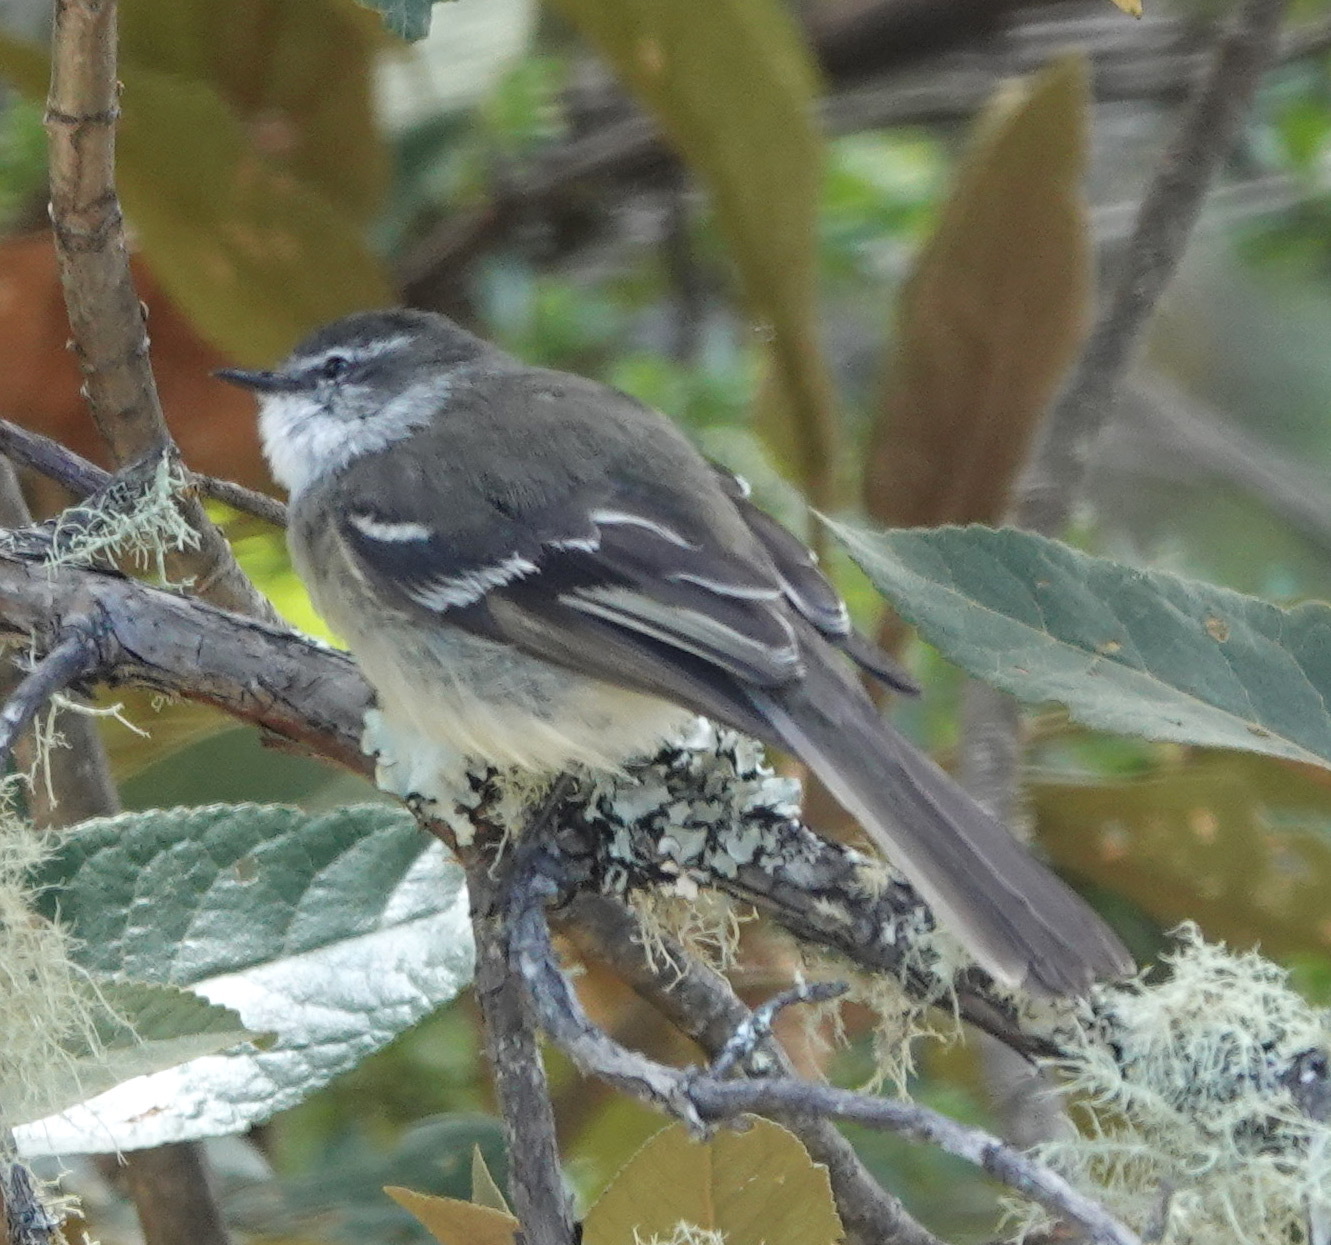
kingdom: Animalia
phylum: Chordata
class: Aves
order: Passeriformes
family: Tyrannidae
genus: Mecocerculus
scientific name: Mecocerculus leucophrys
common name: White-throated tyrannulet
